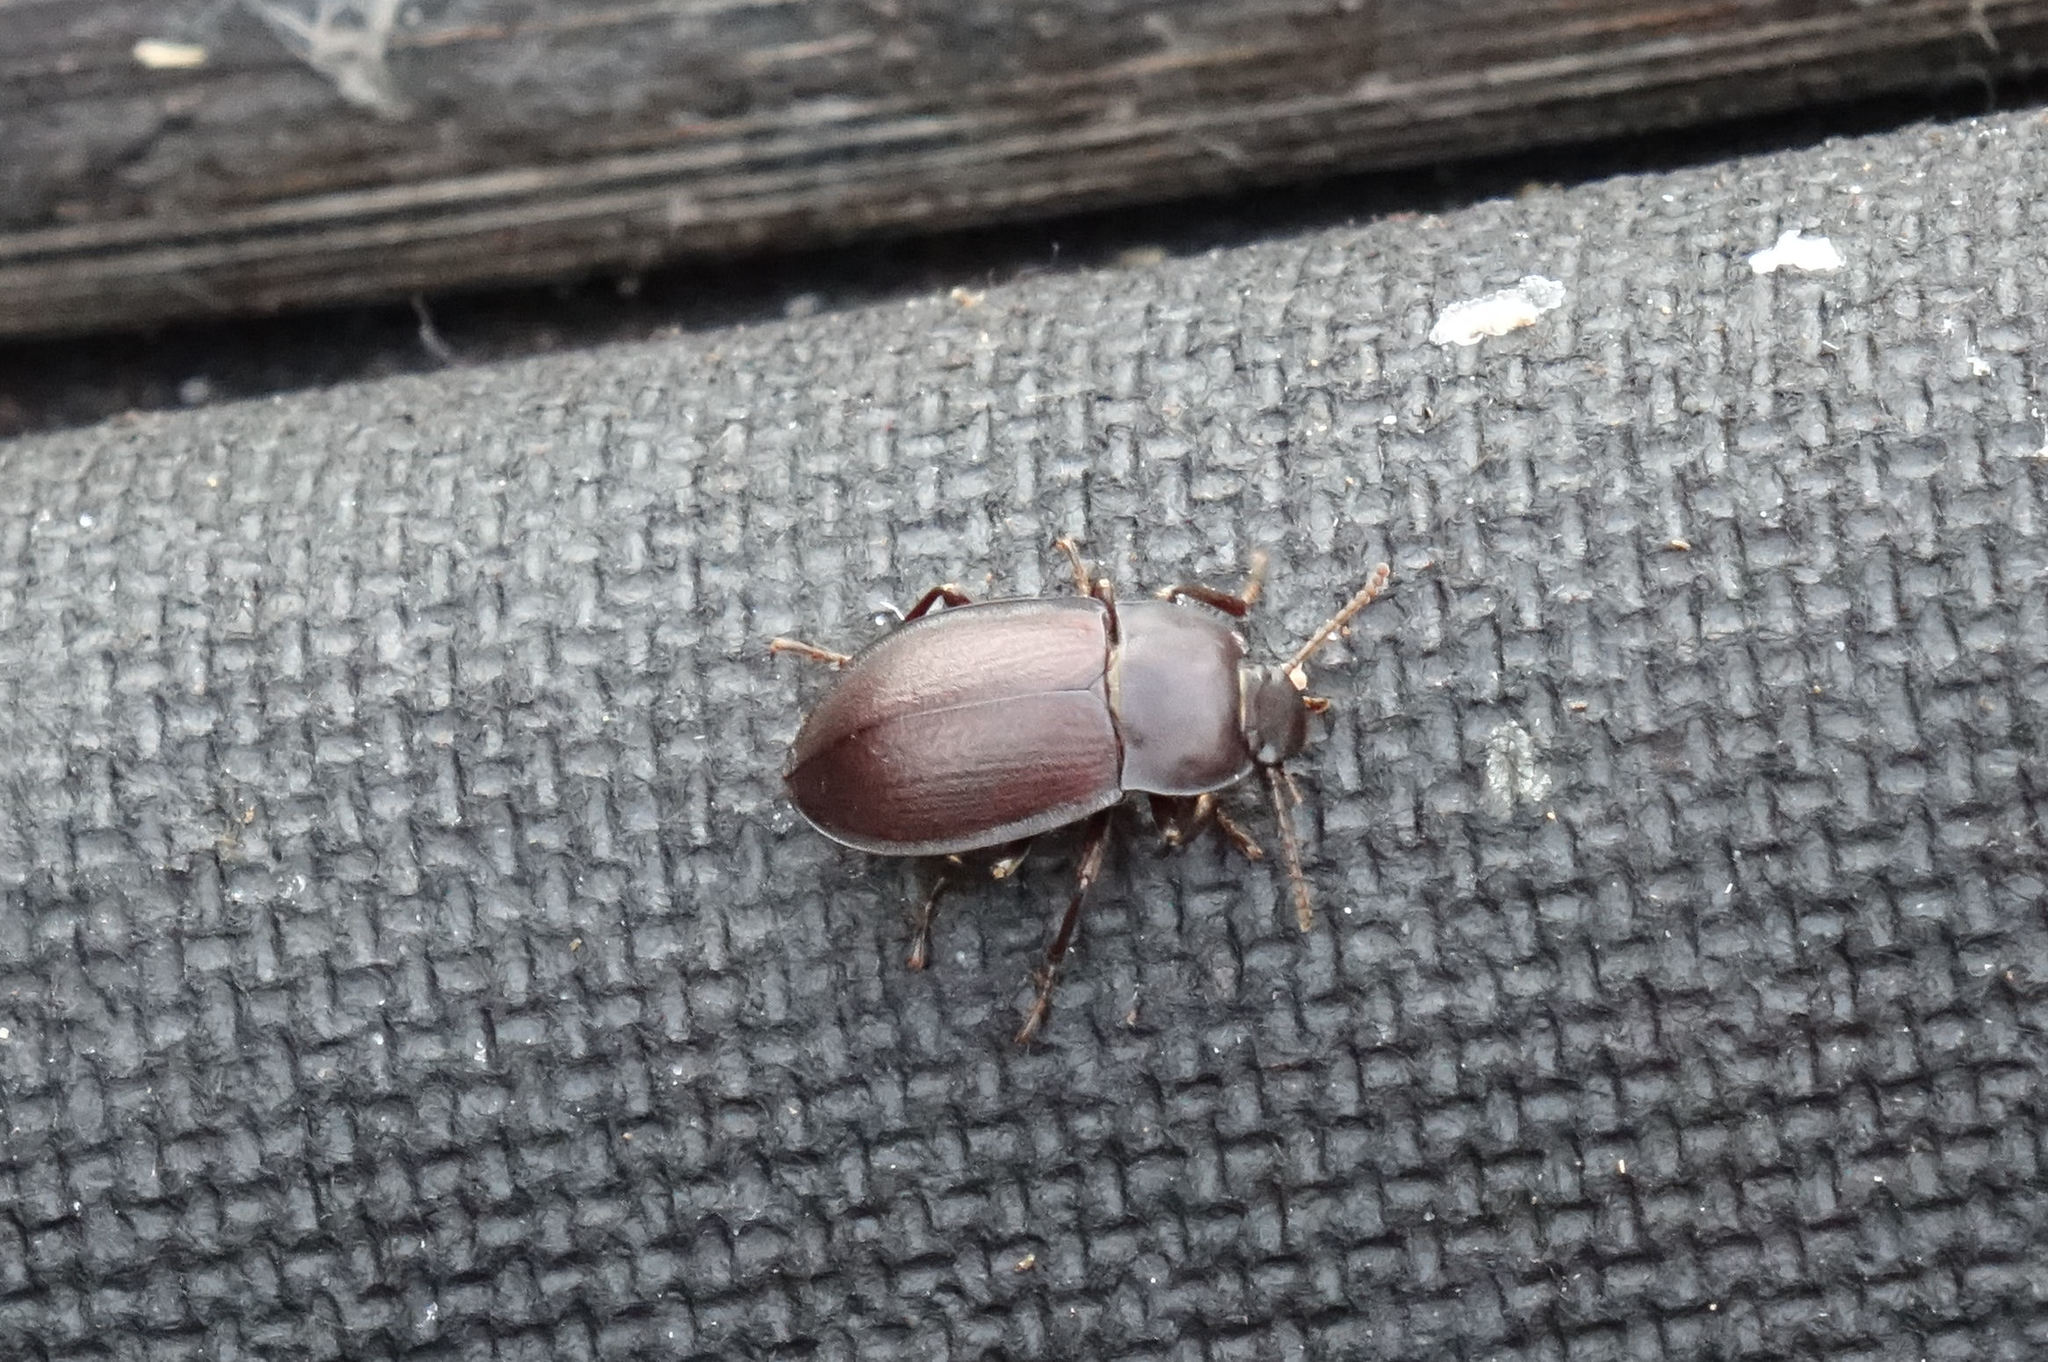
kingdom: Animalia
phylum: Arthropoda
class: Insecta
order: Coleoptera
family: Tenebrionidae
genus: Mimopeus
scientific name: Mimopeus
